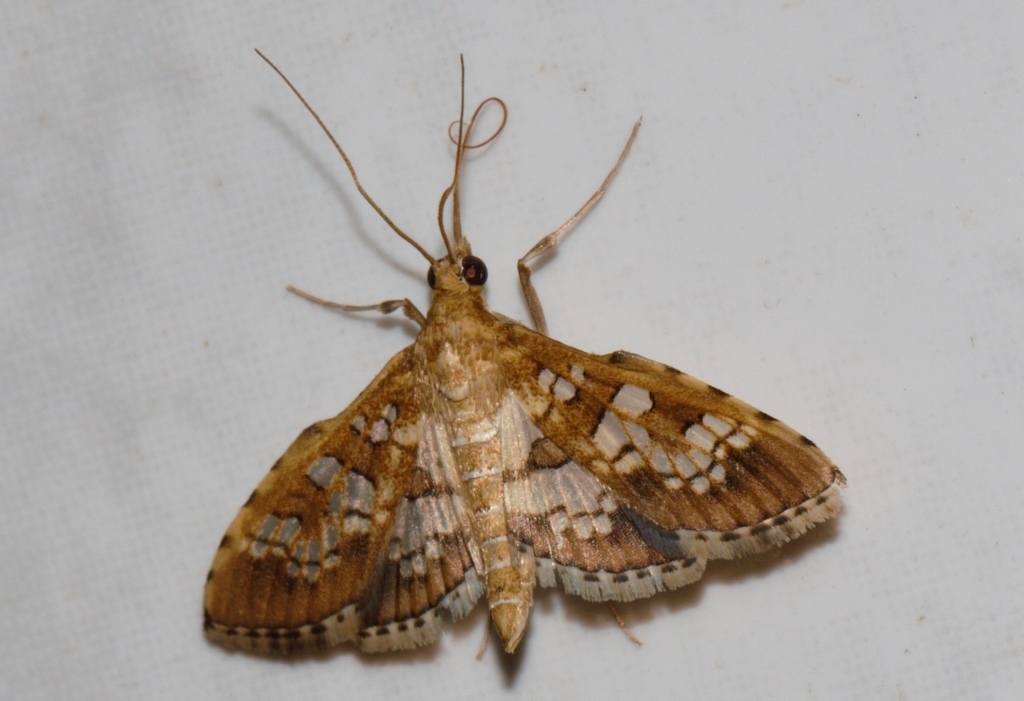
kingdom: Animalia
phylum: Arthropoda
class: Insecta
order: Lepidoptera
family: Crambidae
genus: Sameodes
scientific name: Sameodes cancellalis
